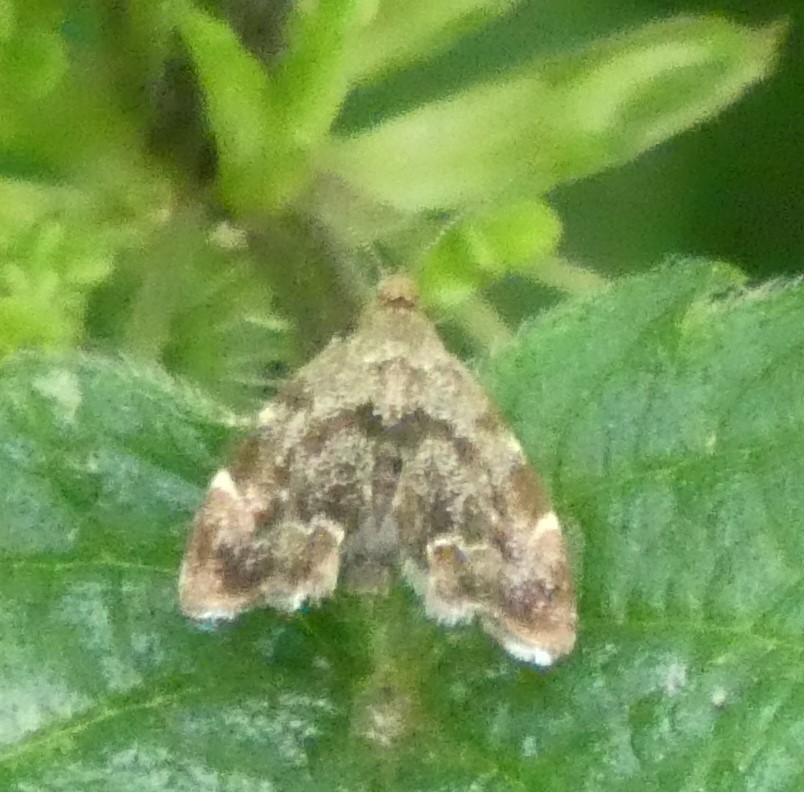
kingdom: Animalia
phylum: Arthropoda
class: Insecta
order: Lepidoptera
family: Choreutidae
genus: Anthophila
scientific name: Anthophila fabriciana
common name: Nettle-tap
